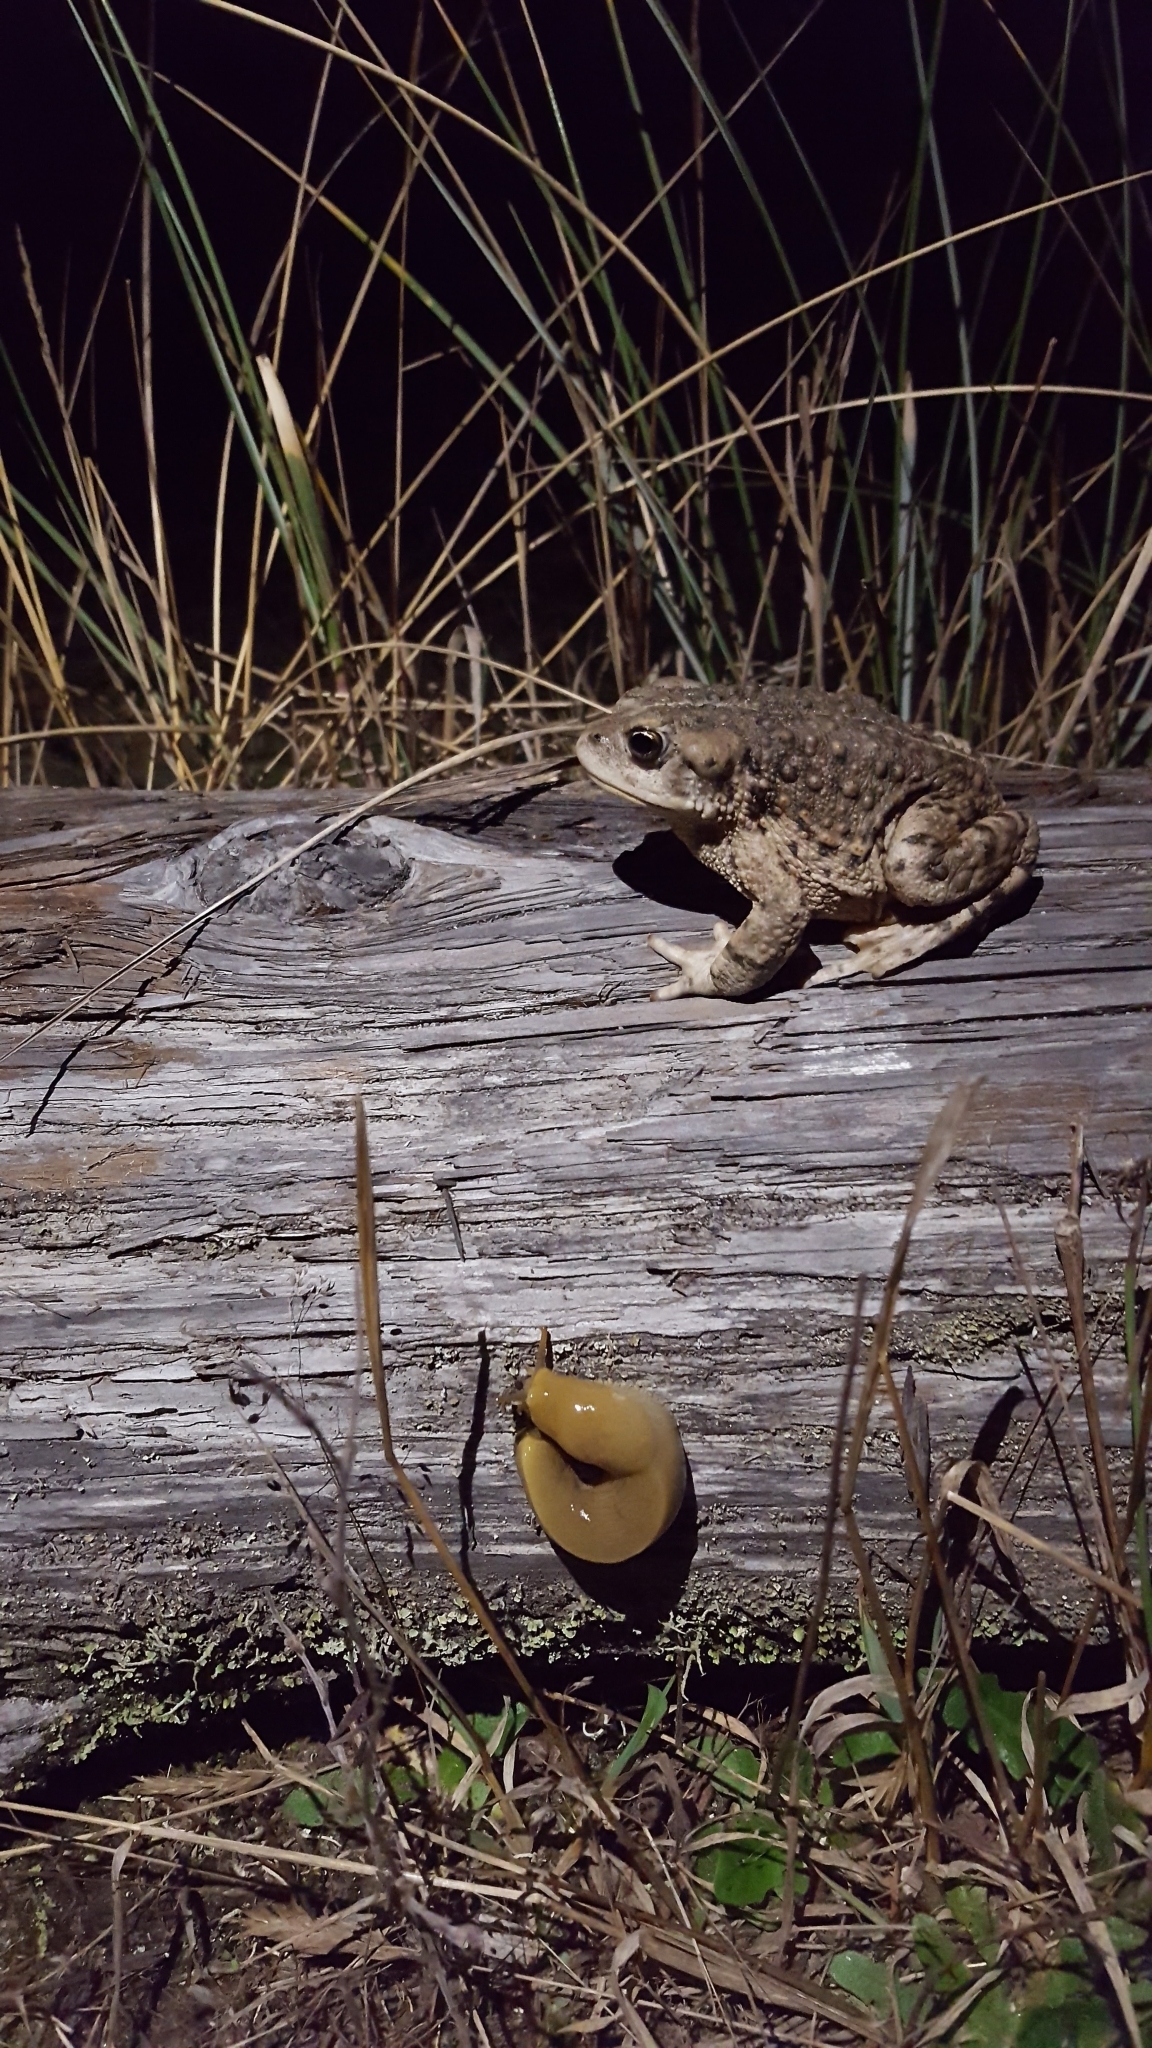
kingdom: Animalia
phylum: Chordata
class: Amphibia
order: Anura
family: Bufonidae
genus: Anaxyrus
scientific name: Anaxyrus boreas
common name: Western toad
